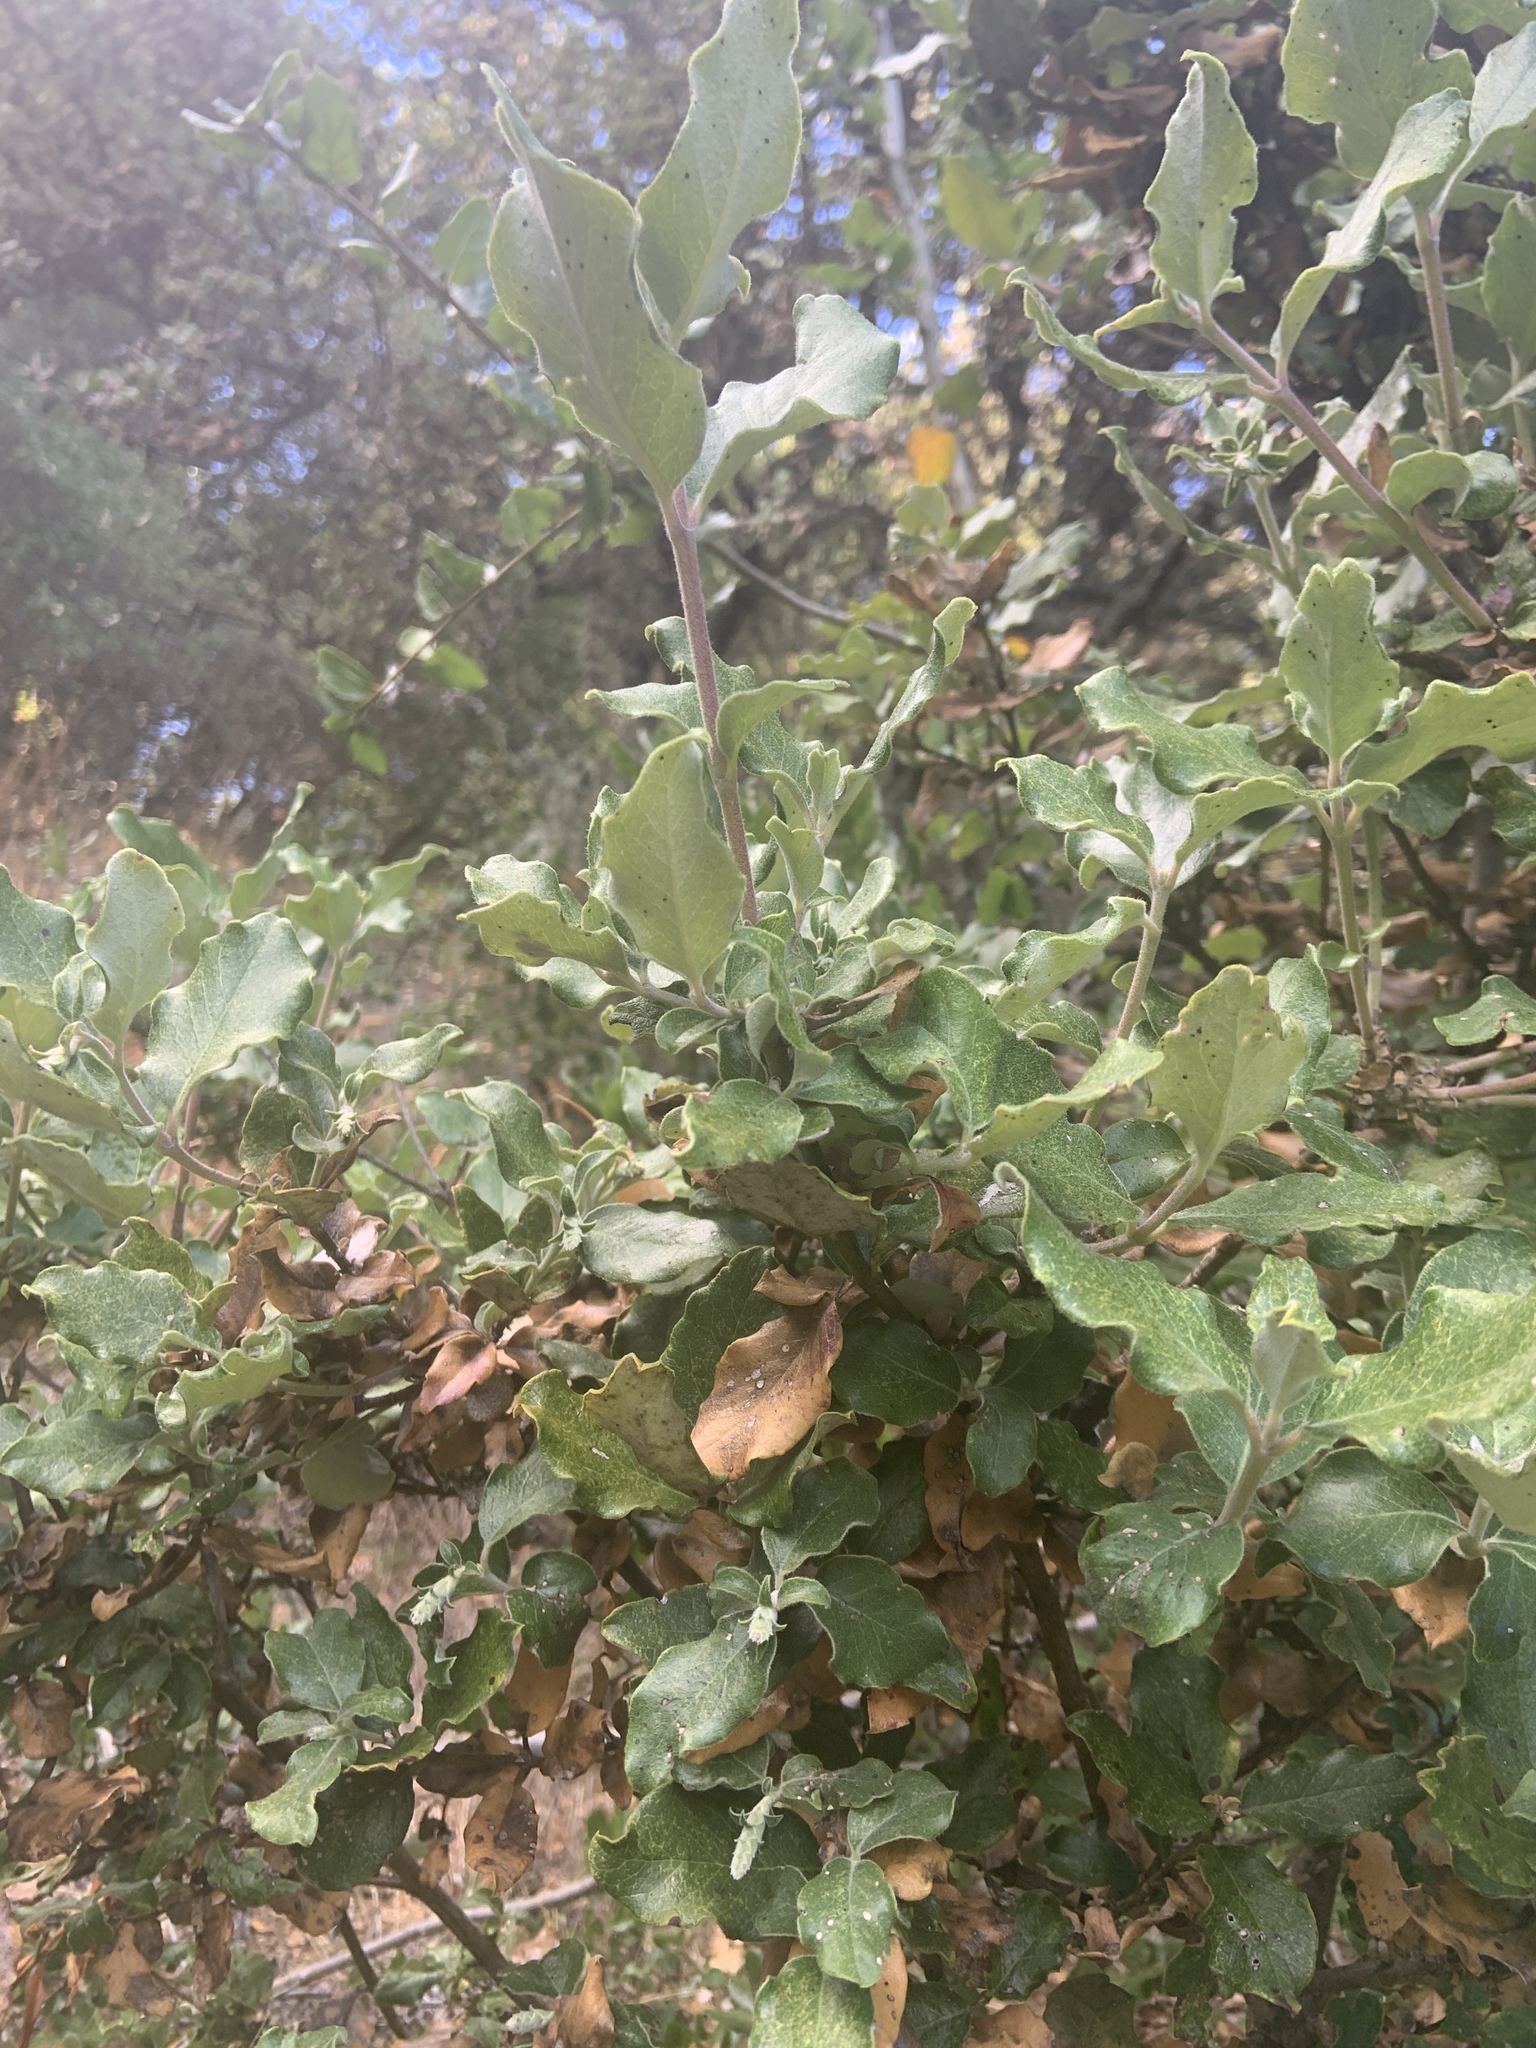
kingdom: Plantae
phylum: Tracheophyta
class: Magnoliopsida
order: Garryales
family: Garryaceae
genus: Garrya
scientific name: Garrya elliptica
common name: Silk-tassel
